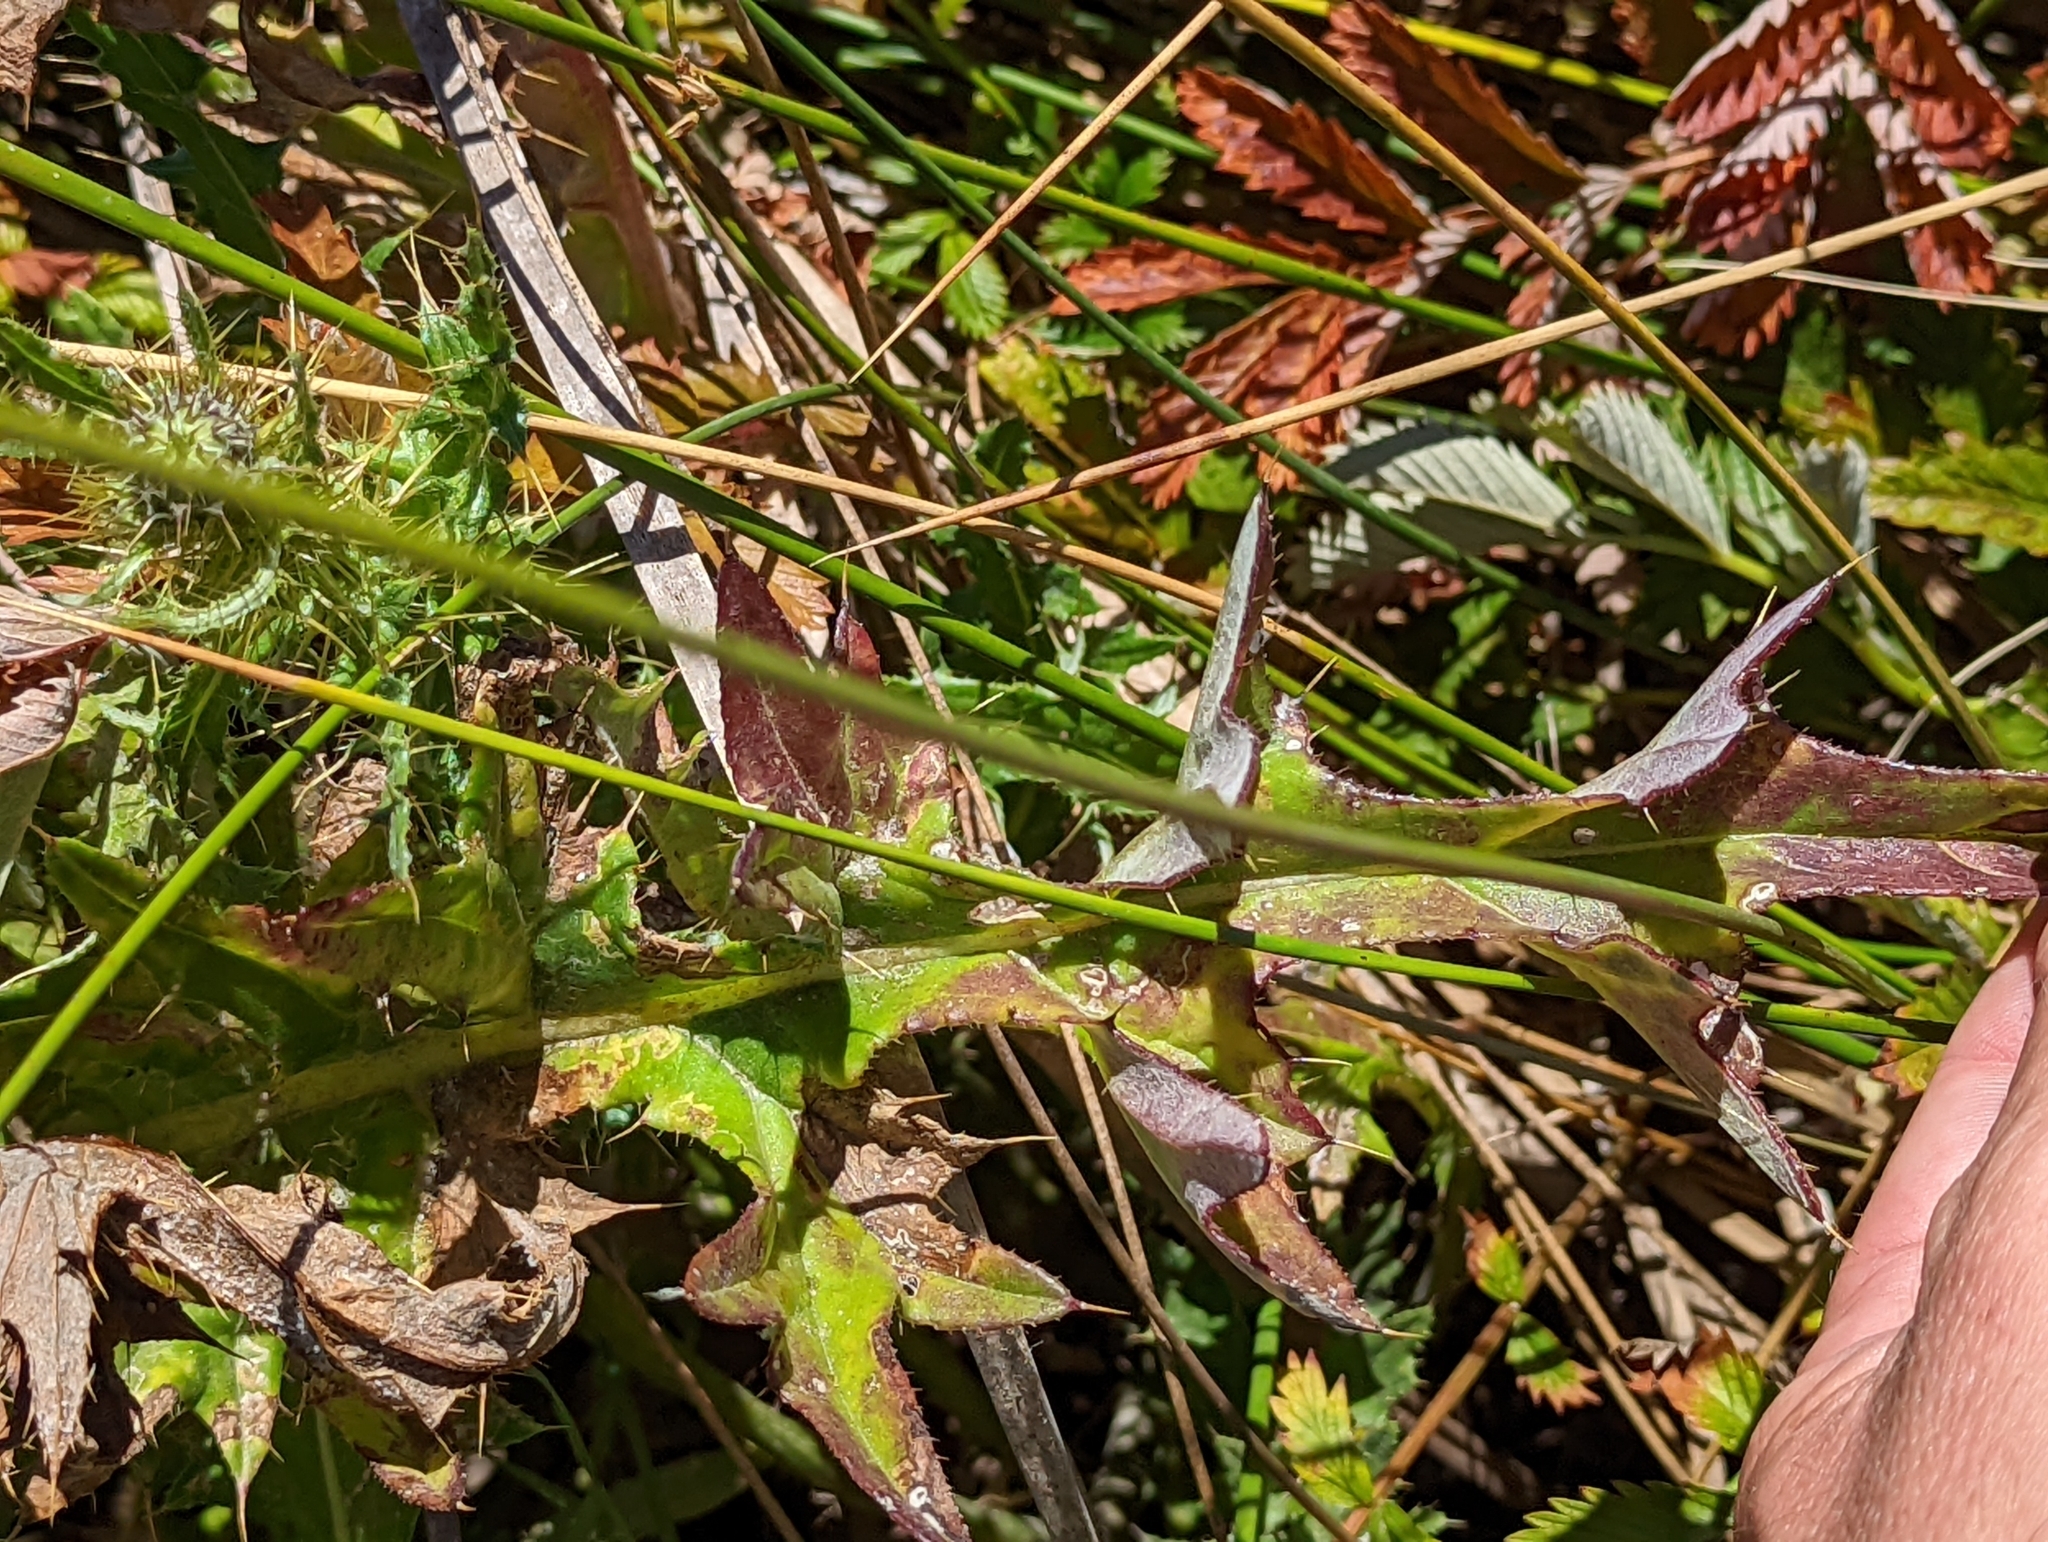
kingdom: Plantae
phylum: Tracheophyta
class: Magnoliopsida
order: Asterales
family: Asteraceae
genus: Cirsium
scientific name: Cirsium hydrophilum
